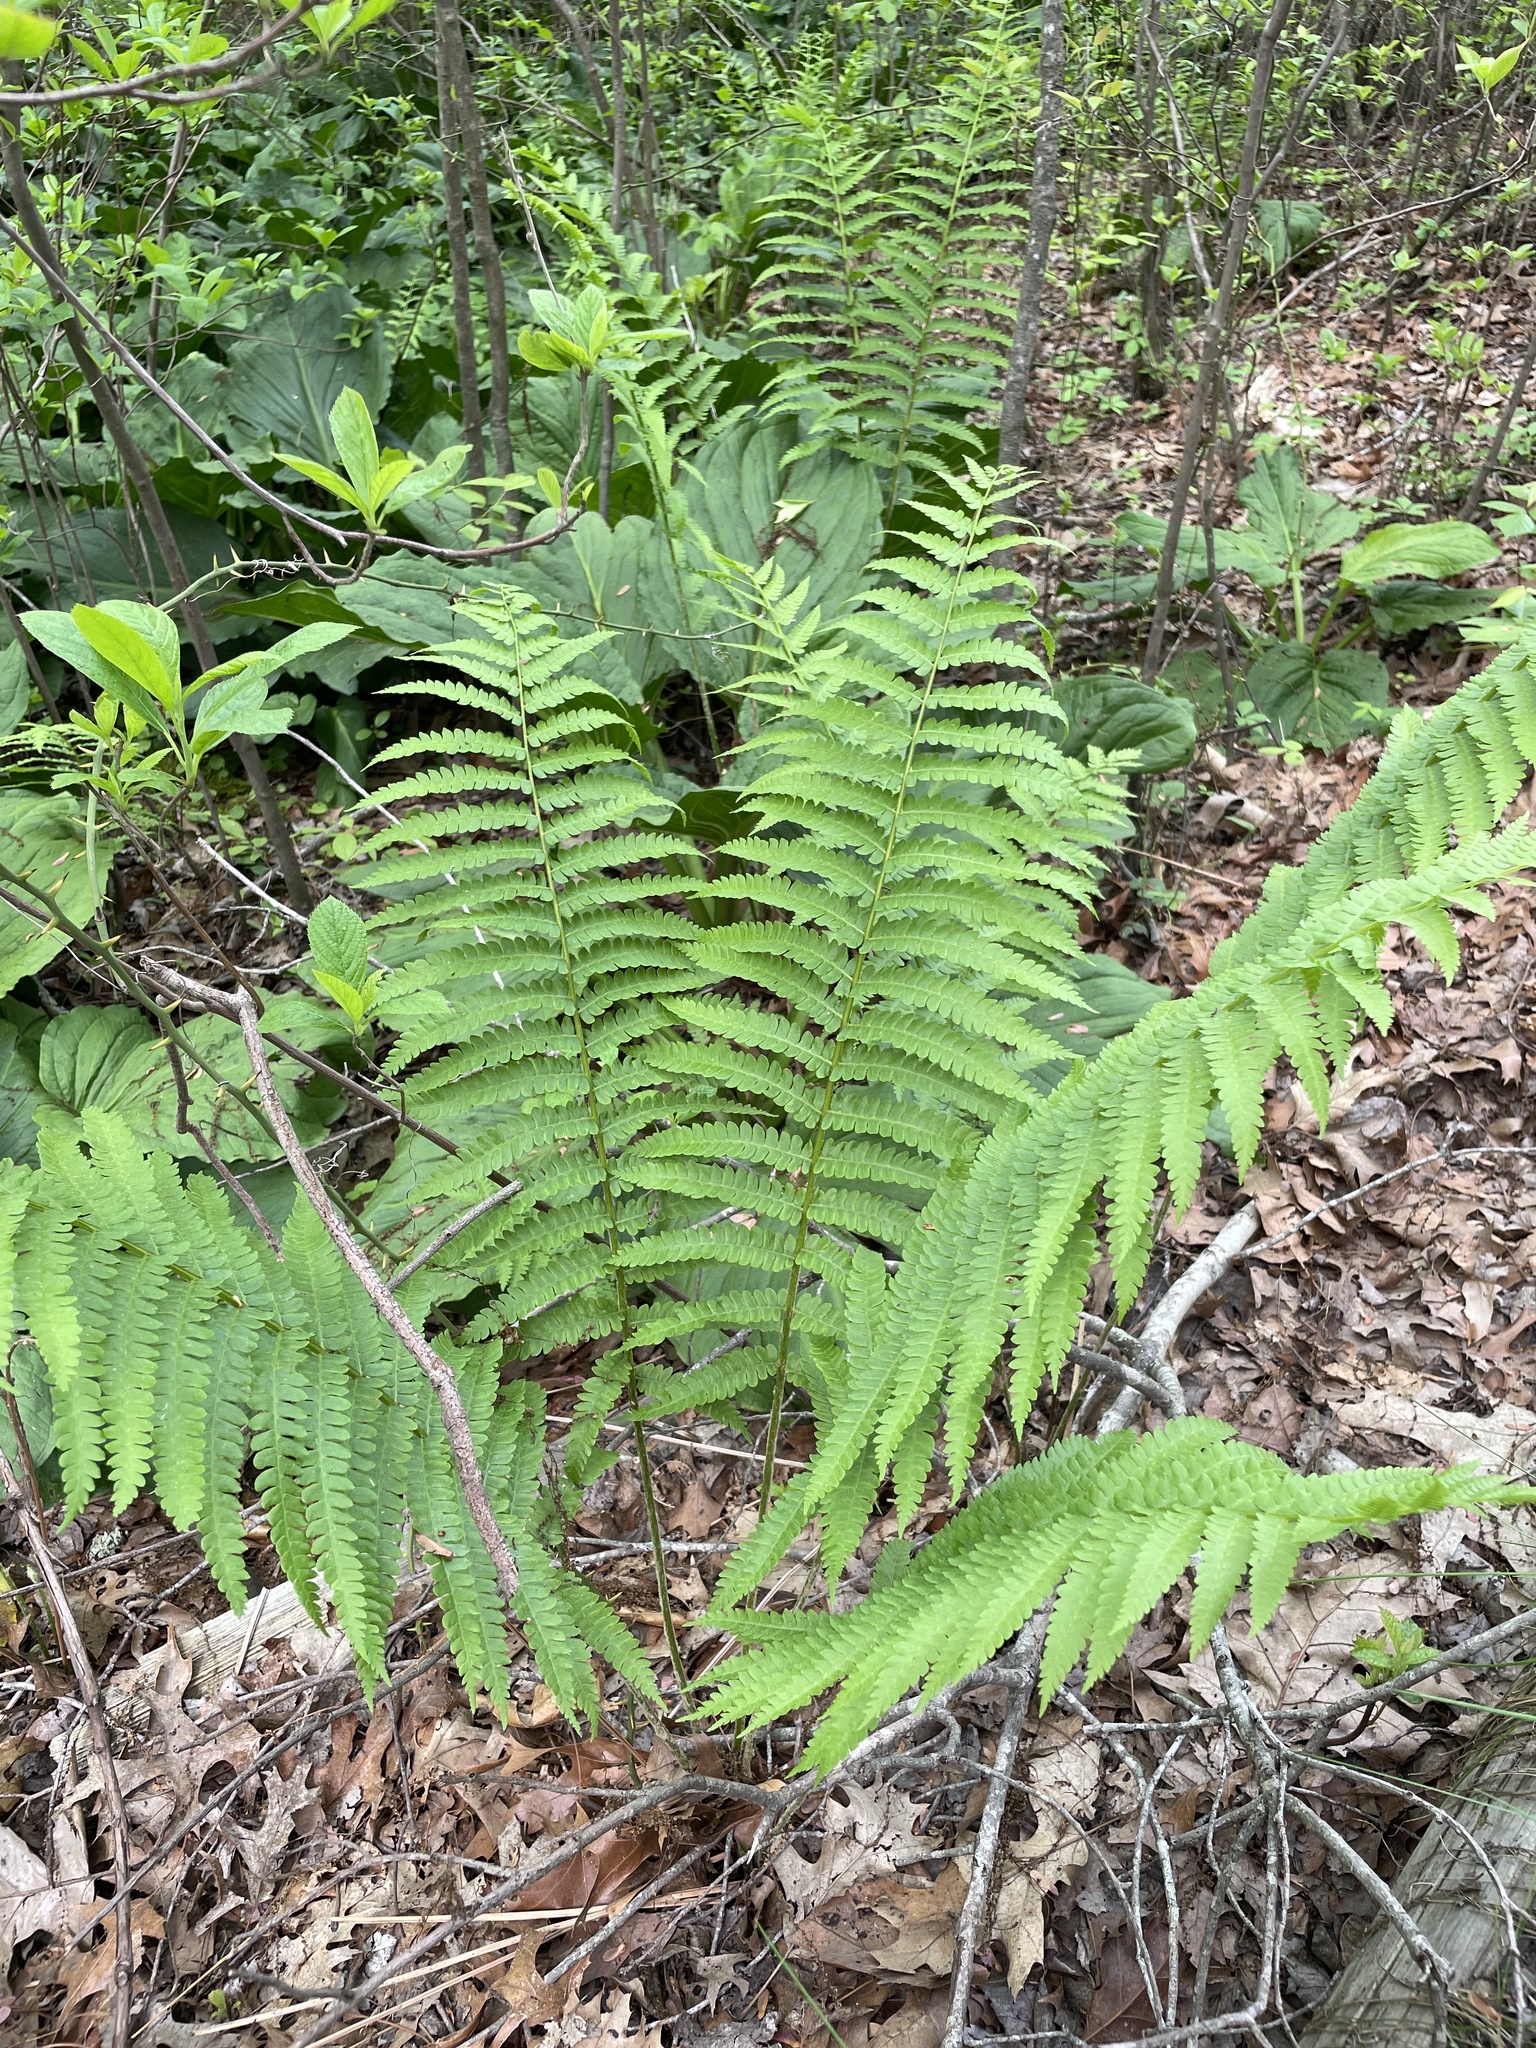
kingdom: Plantae
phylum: Tracheophyta
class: Polypodiopsida
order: Osmundales
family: Osmundaceae
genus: Osmundastrum
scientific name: Osmundastrum cinnamomeum
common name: Cinnamon fern
